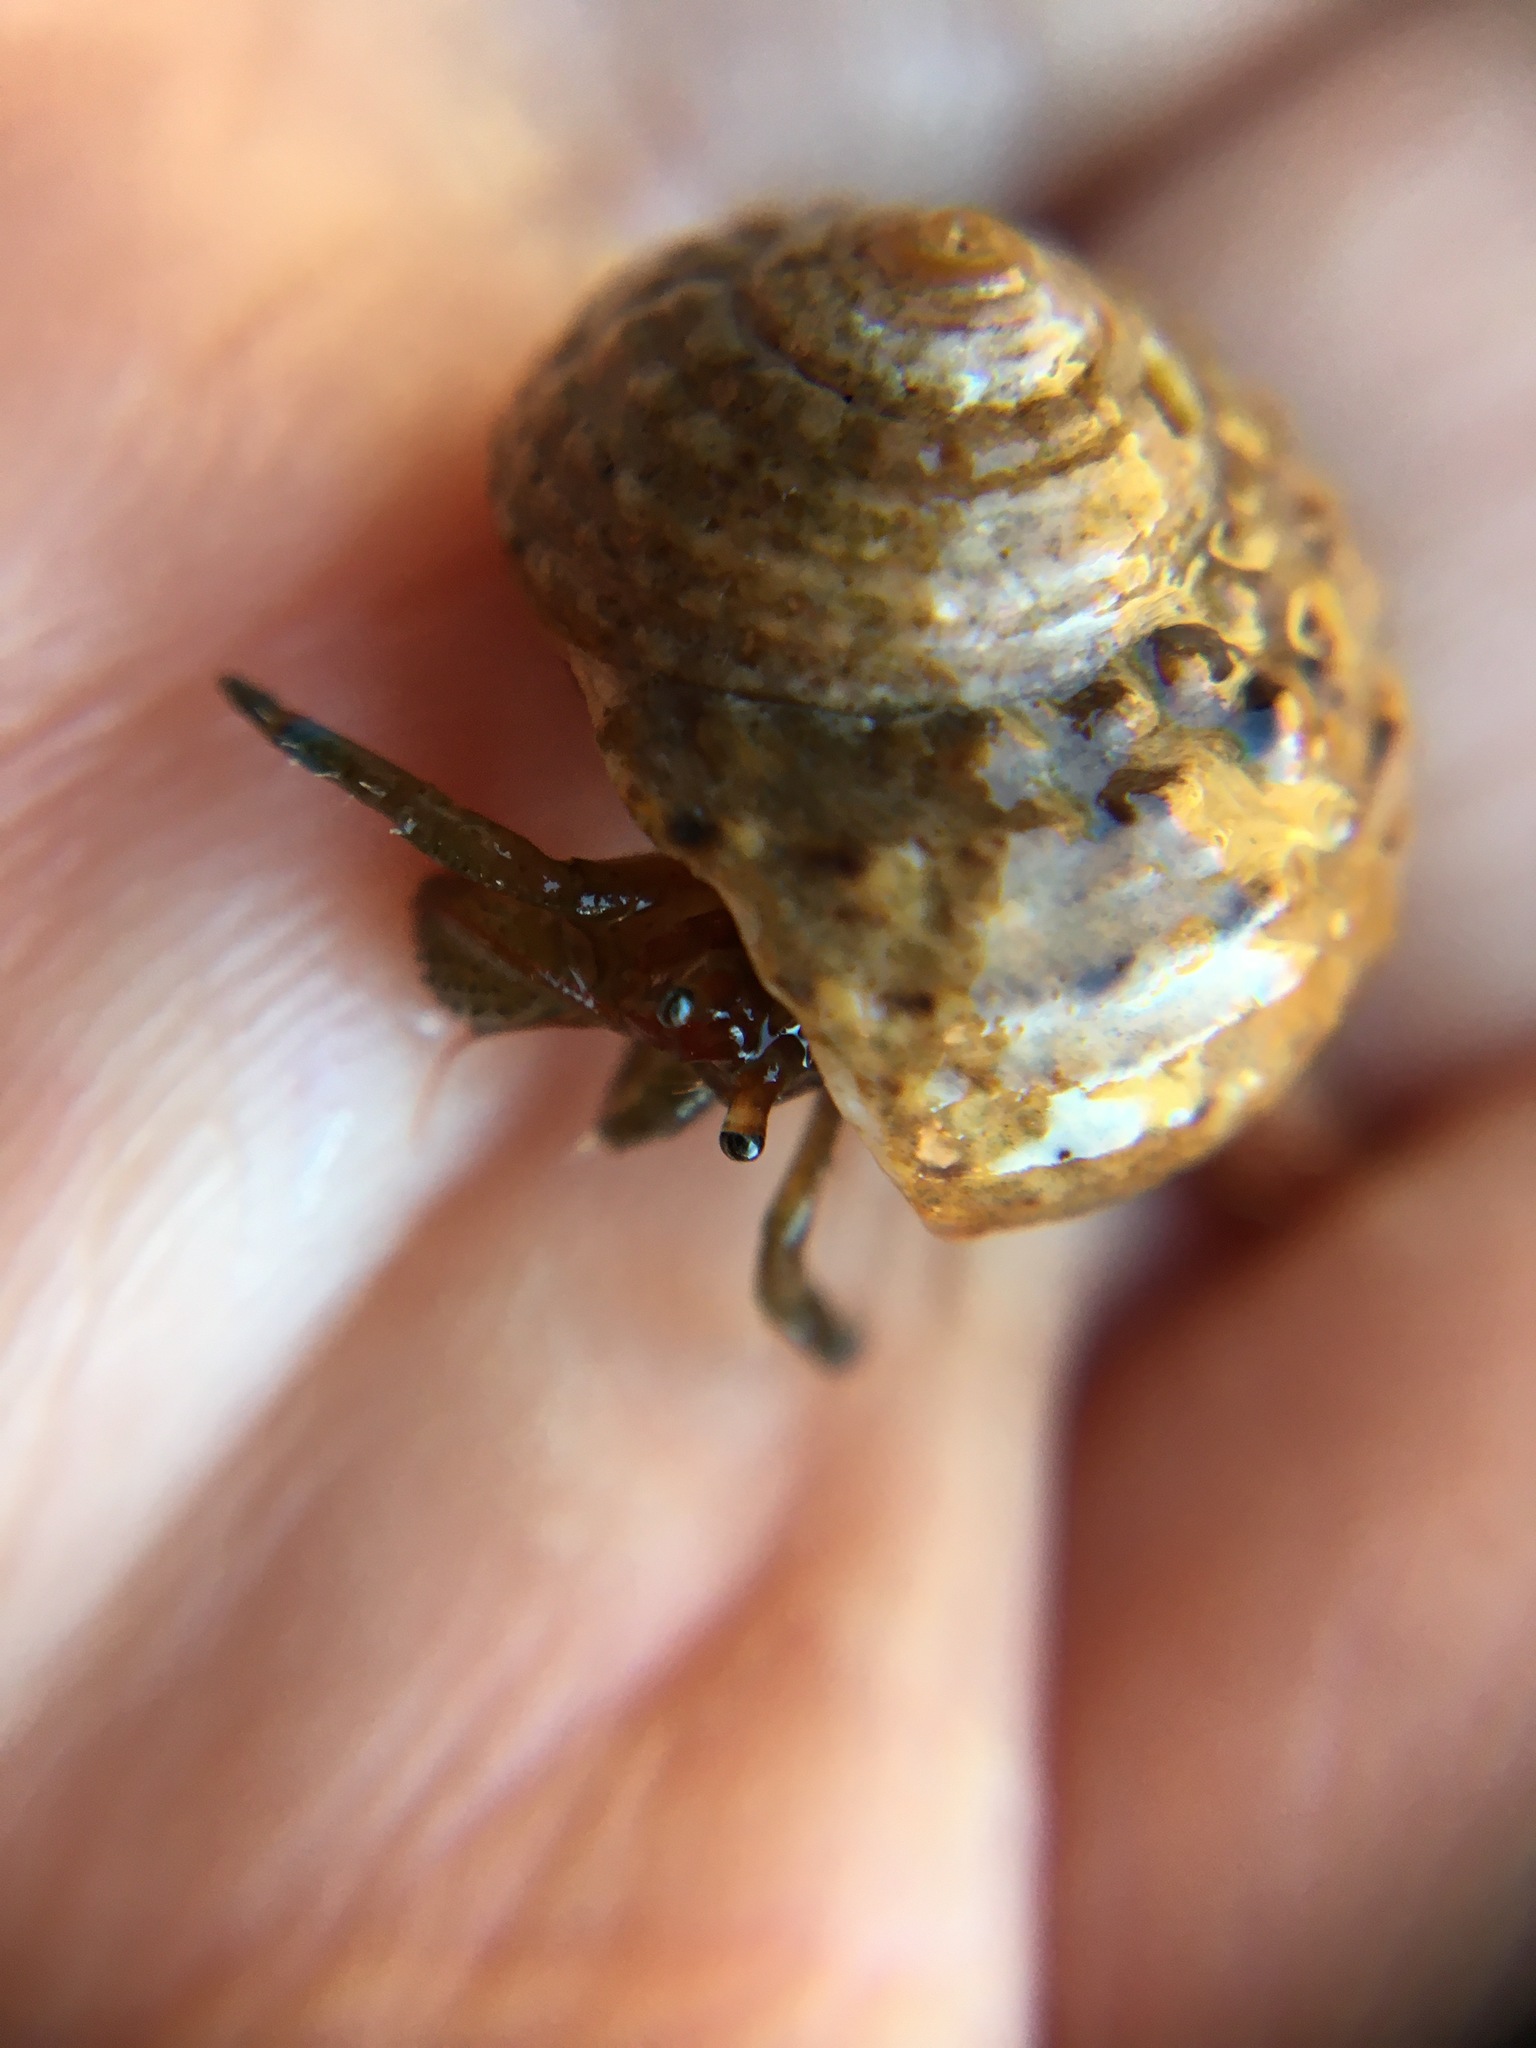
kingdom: Animalia
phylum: Mollusca
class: Gastropoda
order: Trochida
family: Tegulidae
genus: Tegula
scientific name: Tegula eiseni
